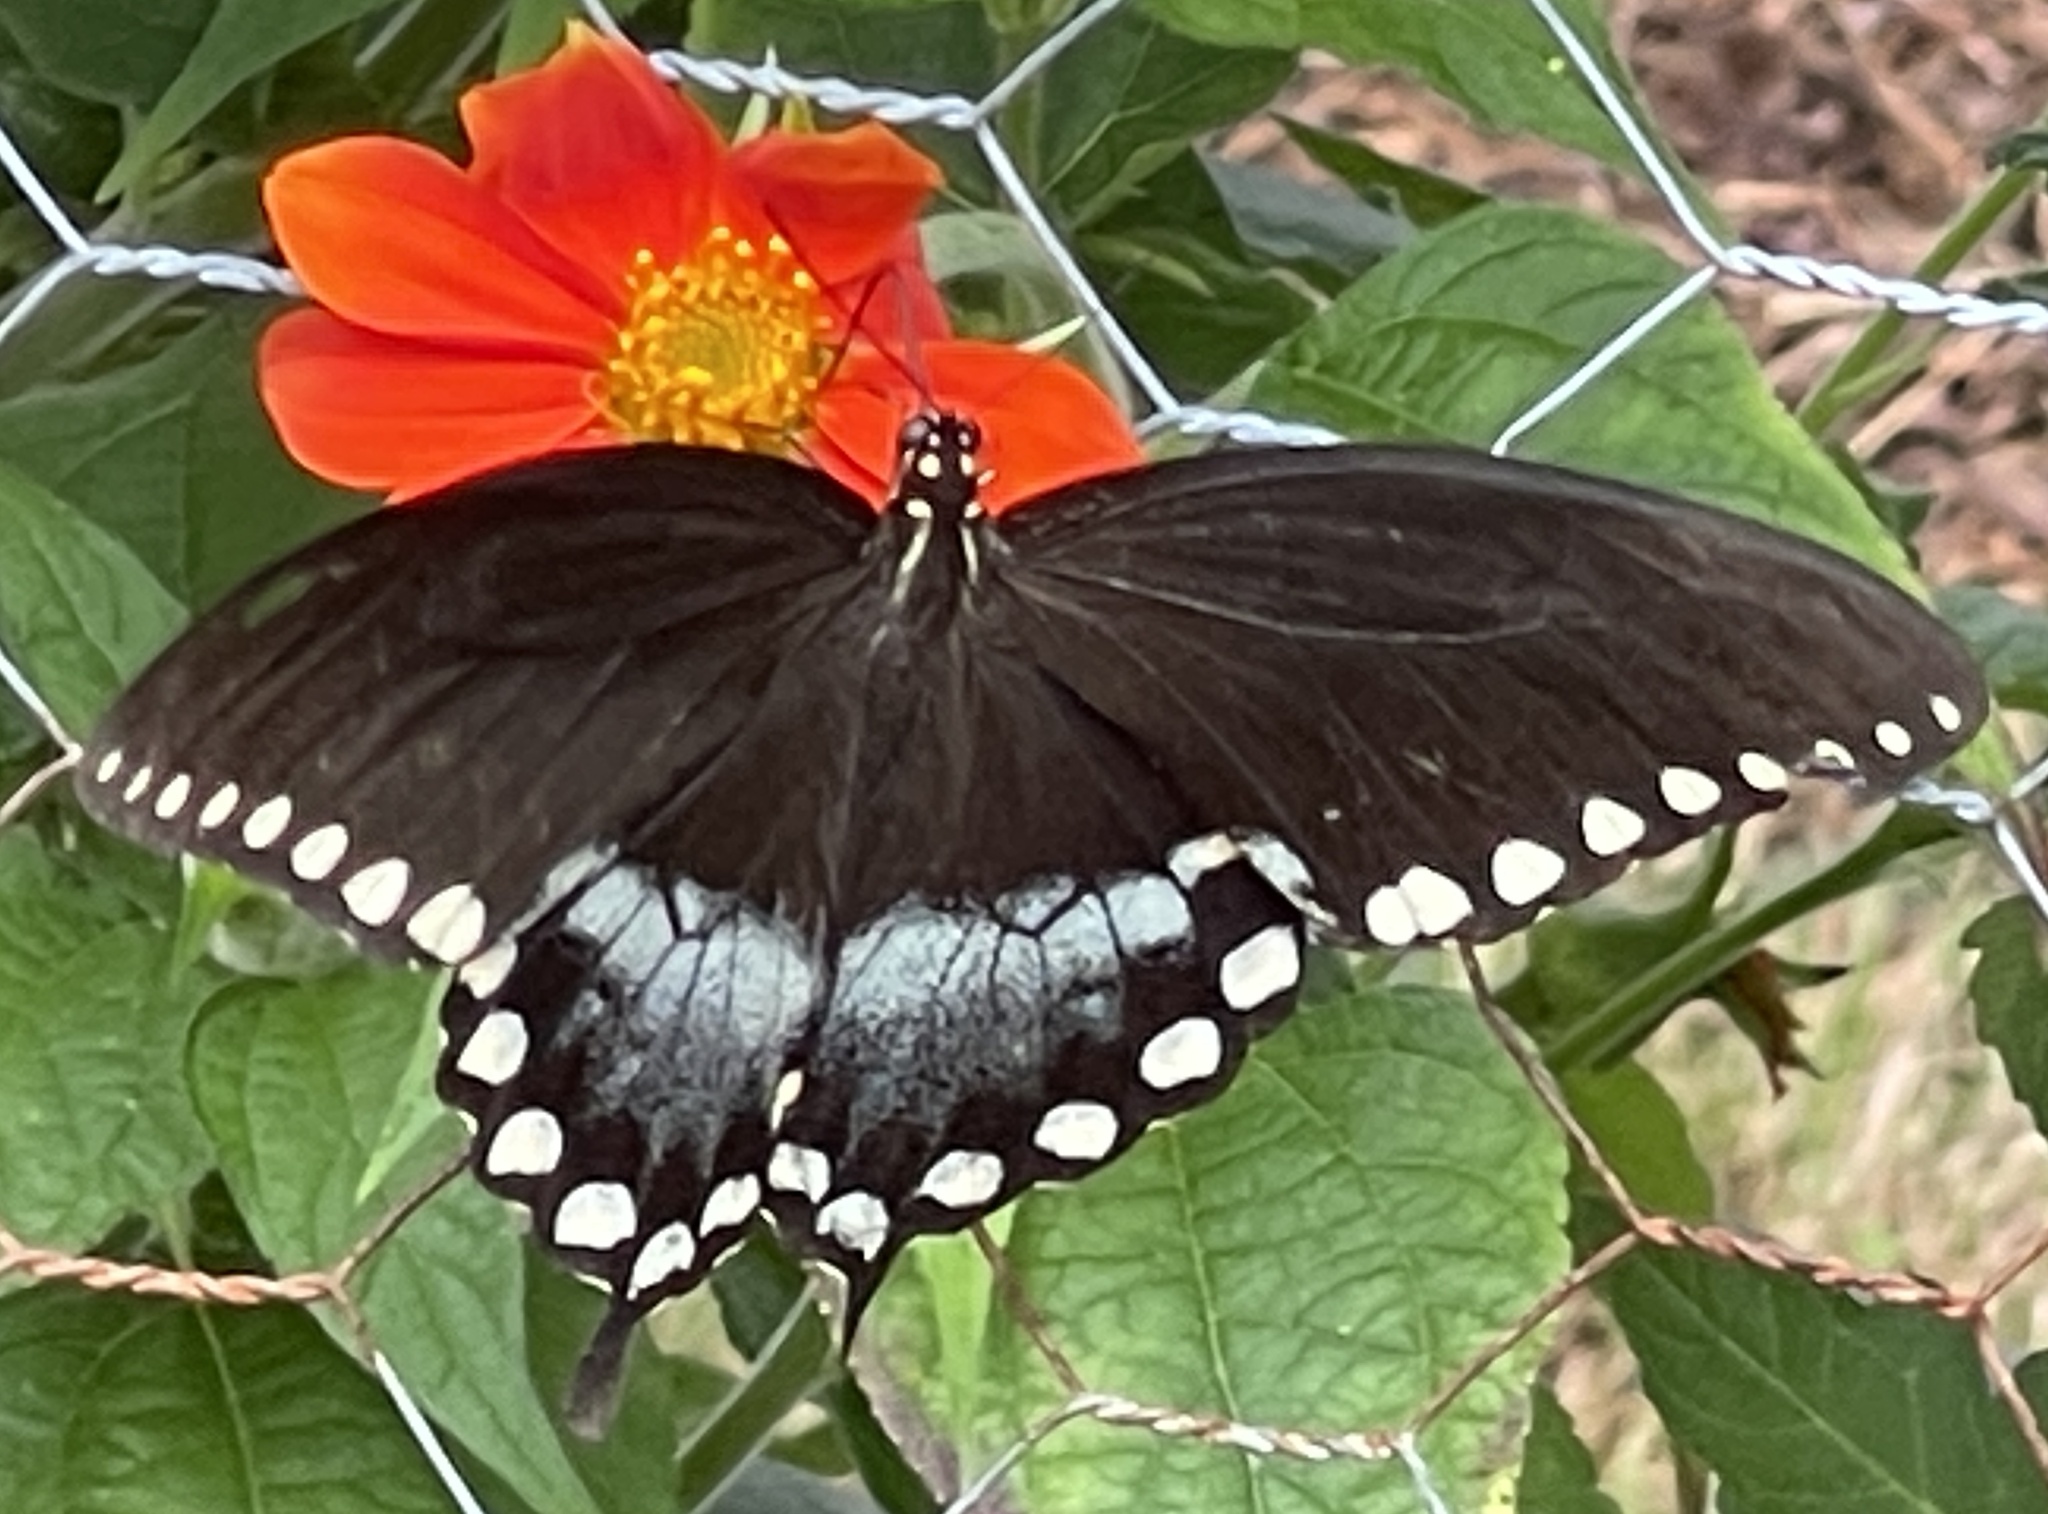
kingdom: Animalia
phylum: Arthropoda
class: Insecta
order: Lepidoptera
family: Papilionidae
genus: Papilio
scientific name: Papilio troilus
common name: Spicebush swallowtail
